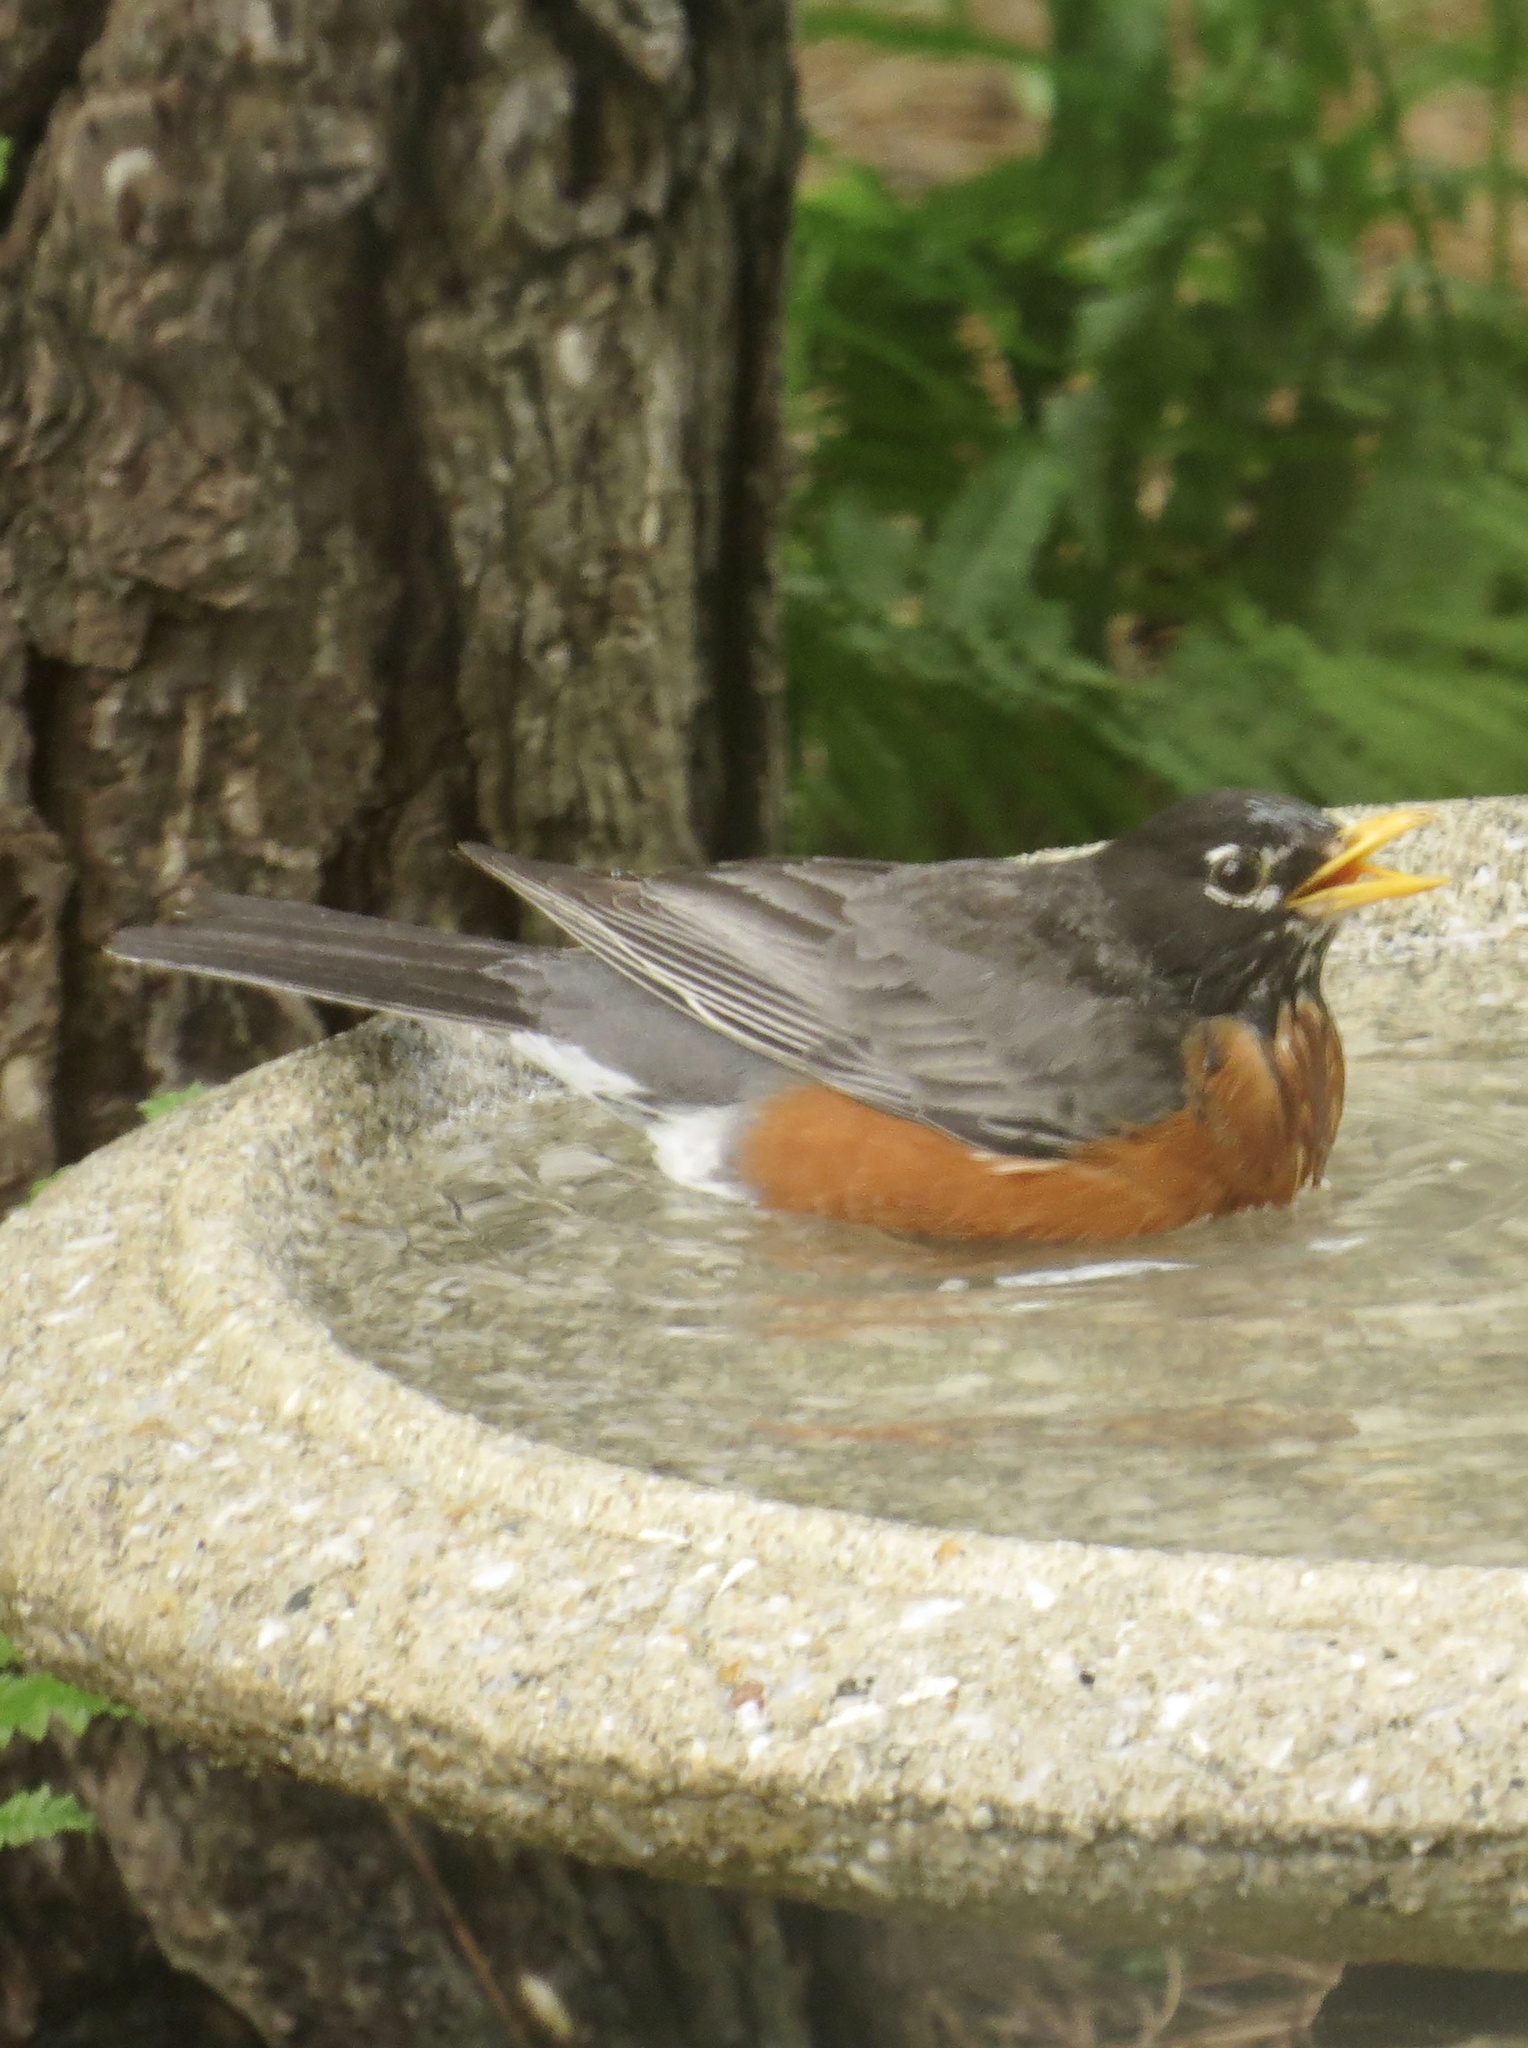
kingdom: Animalia
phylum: Chordata
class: Aves
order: Passeriformes
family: Turdidae
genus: Turdus
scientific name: Turdus migratorius
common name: American robin
